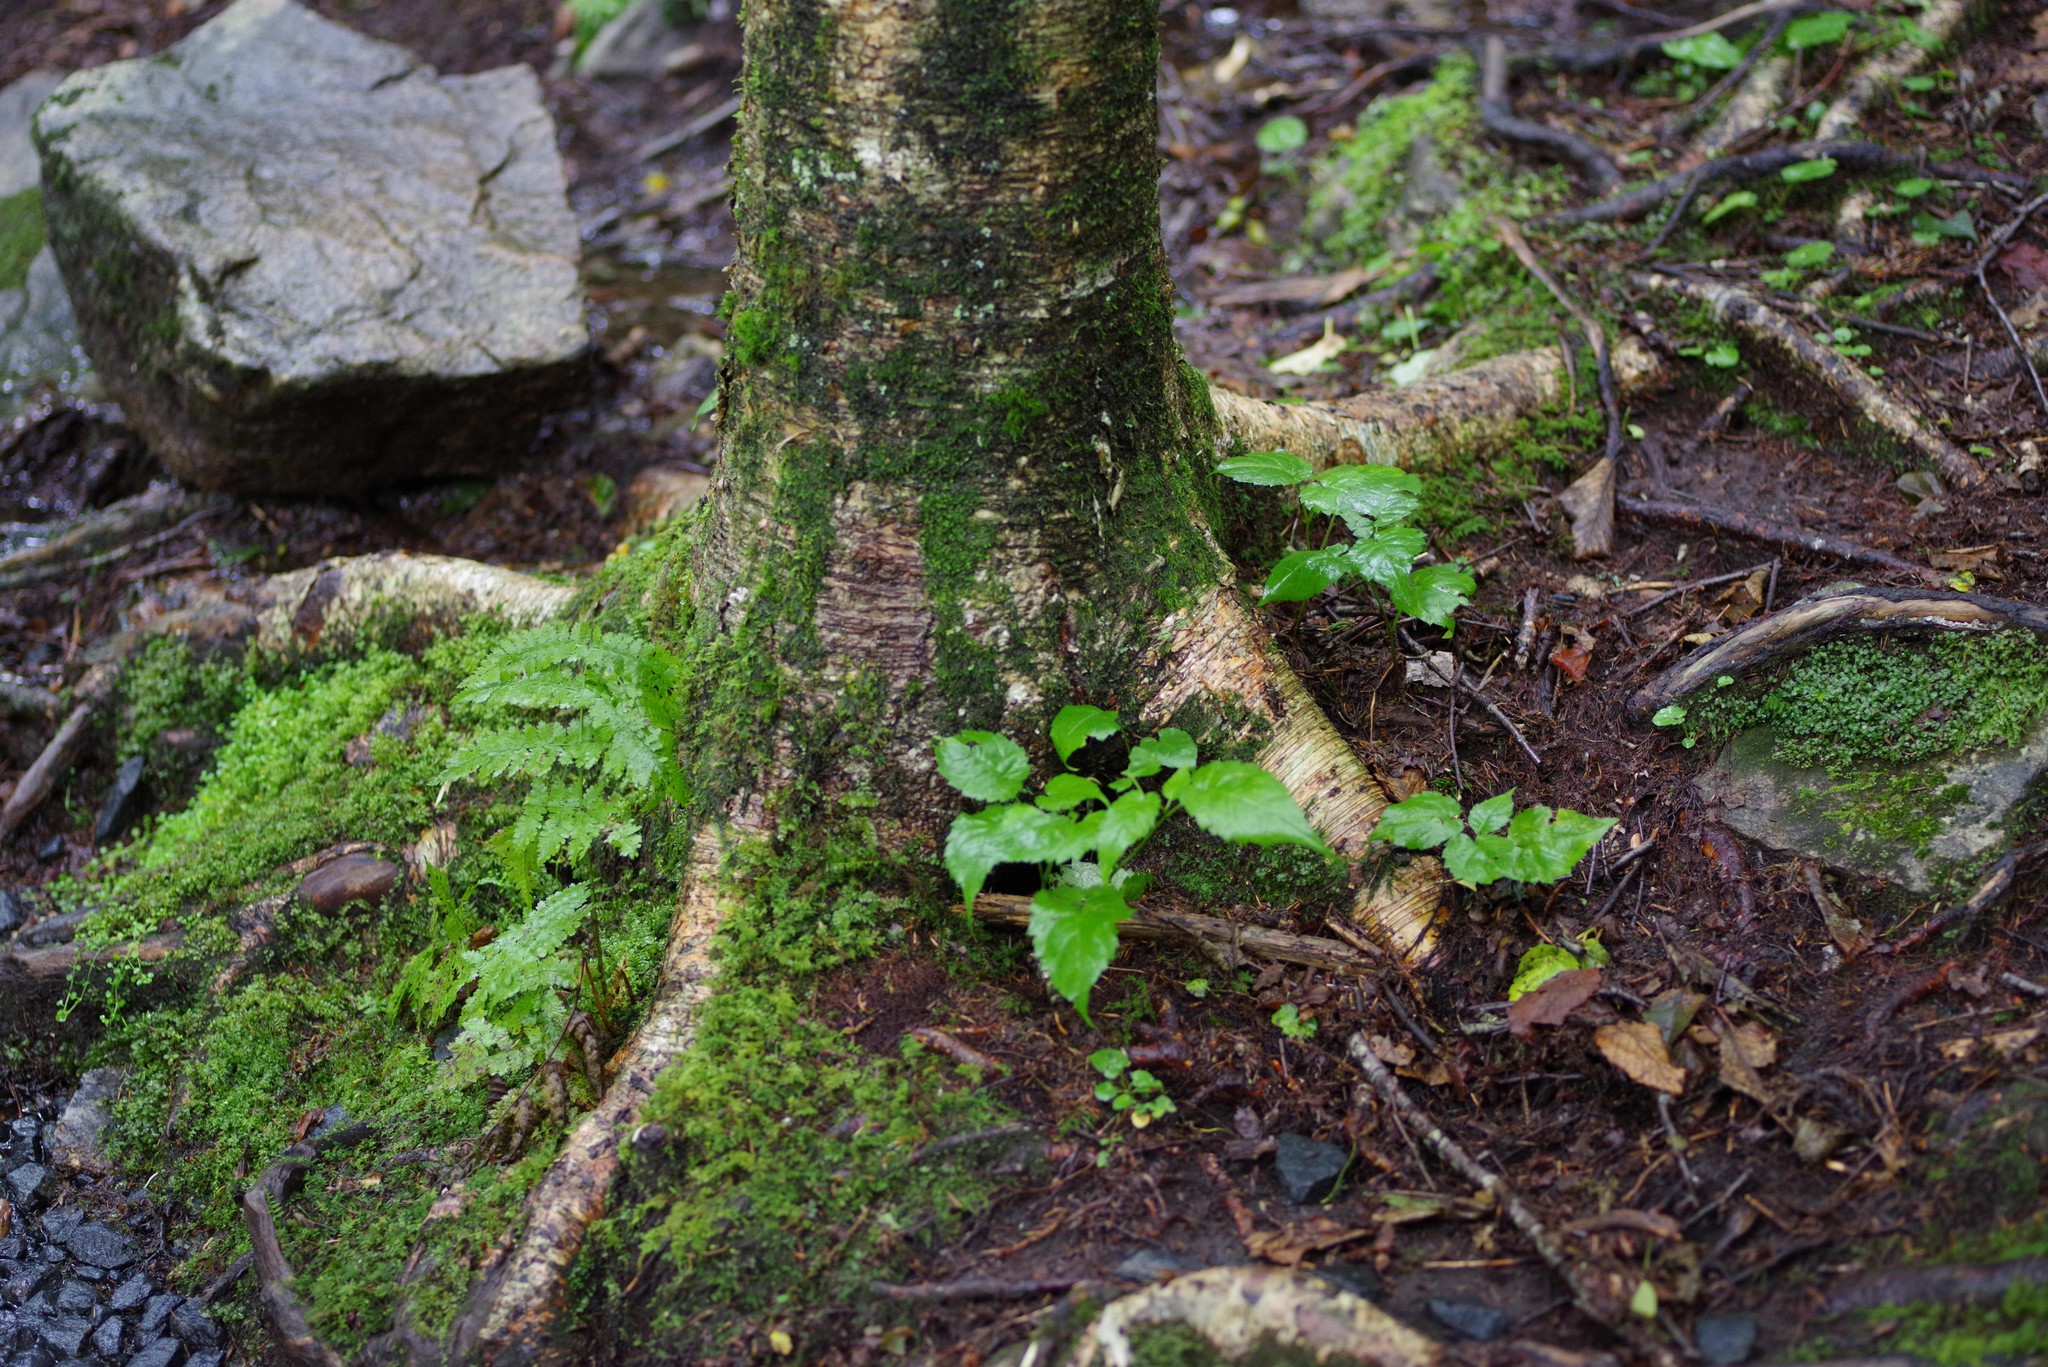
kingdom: Plantae
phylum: Tracheophyta
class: Magnoliopsida
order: Fagales
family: Betulaceae
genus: Betula
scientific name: Betula alleghaniensis
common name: Yellow birch
